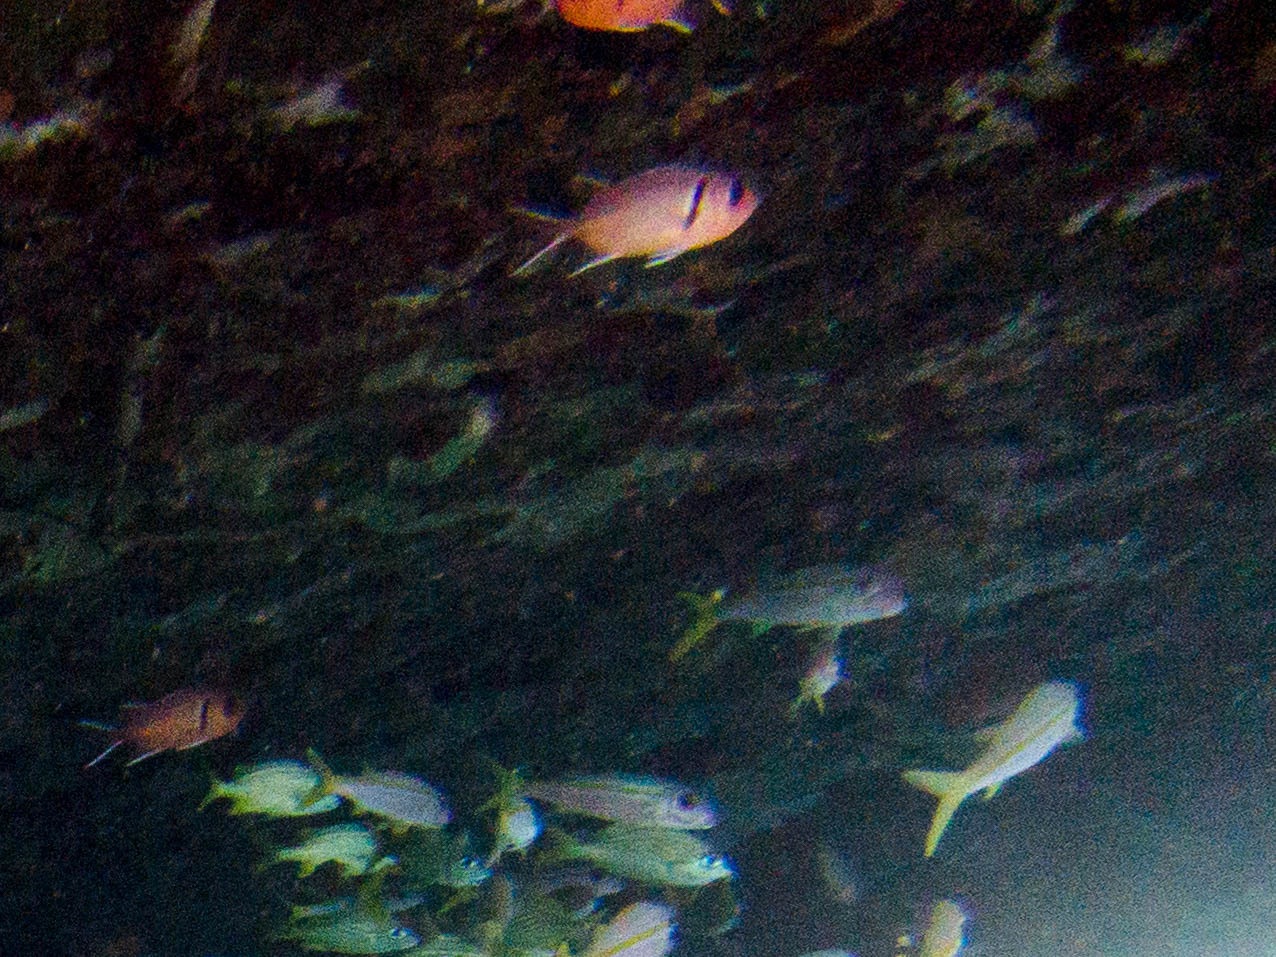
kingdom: Animalia
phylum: Chordata
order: Beryciformes
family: Holocentridae
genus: Myripristis
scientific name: Myripristis jacobus
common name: Blackbar soldierfish
